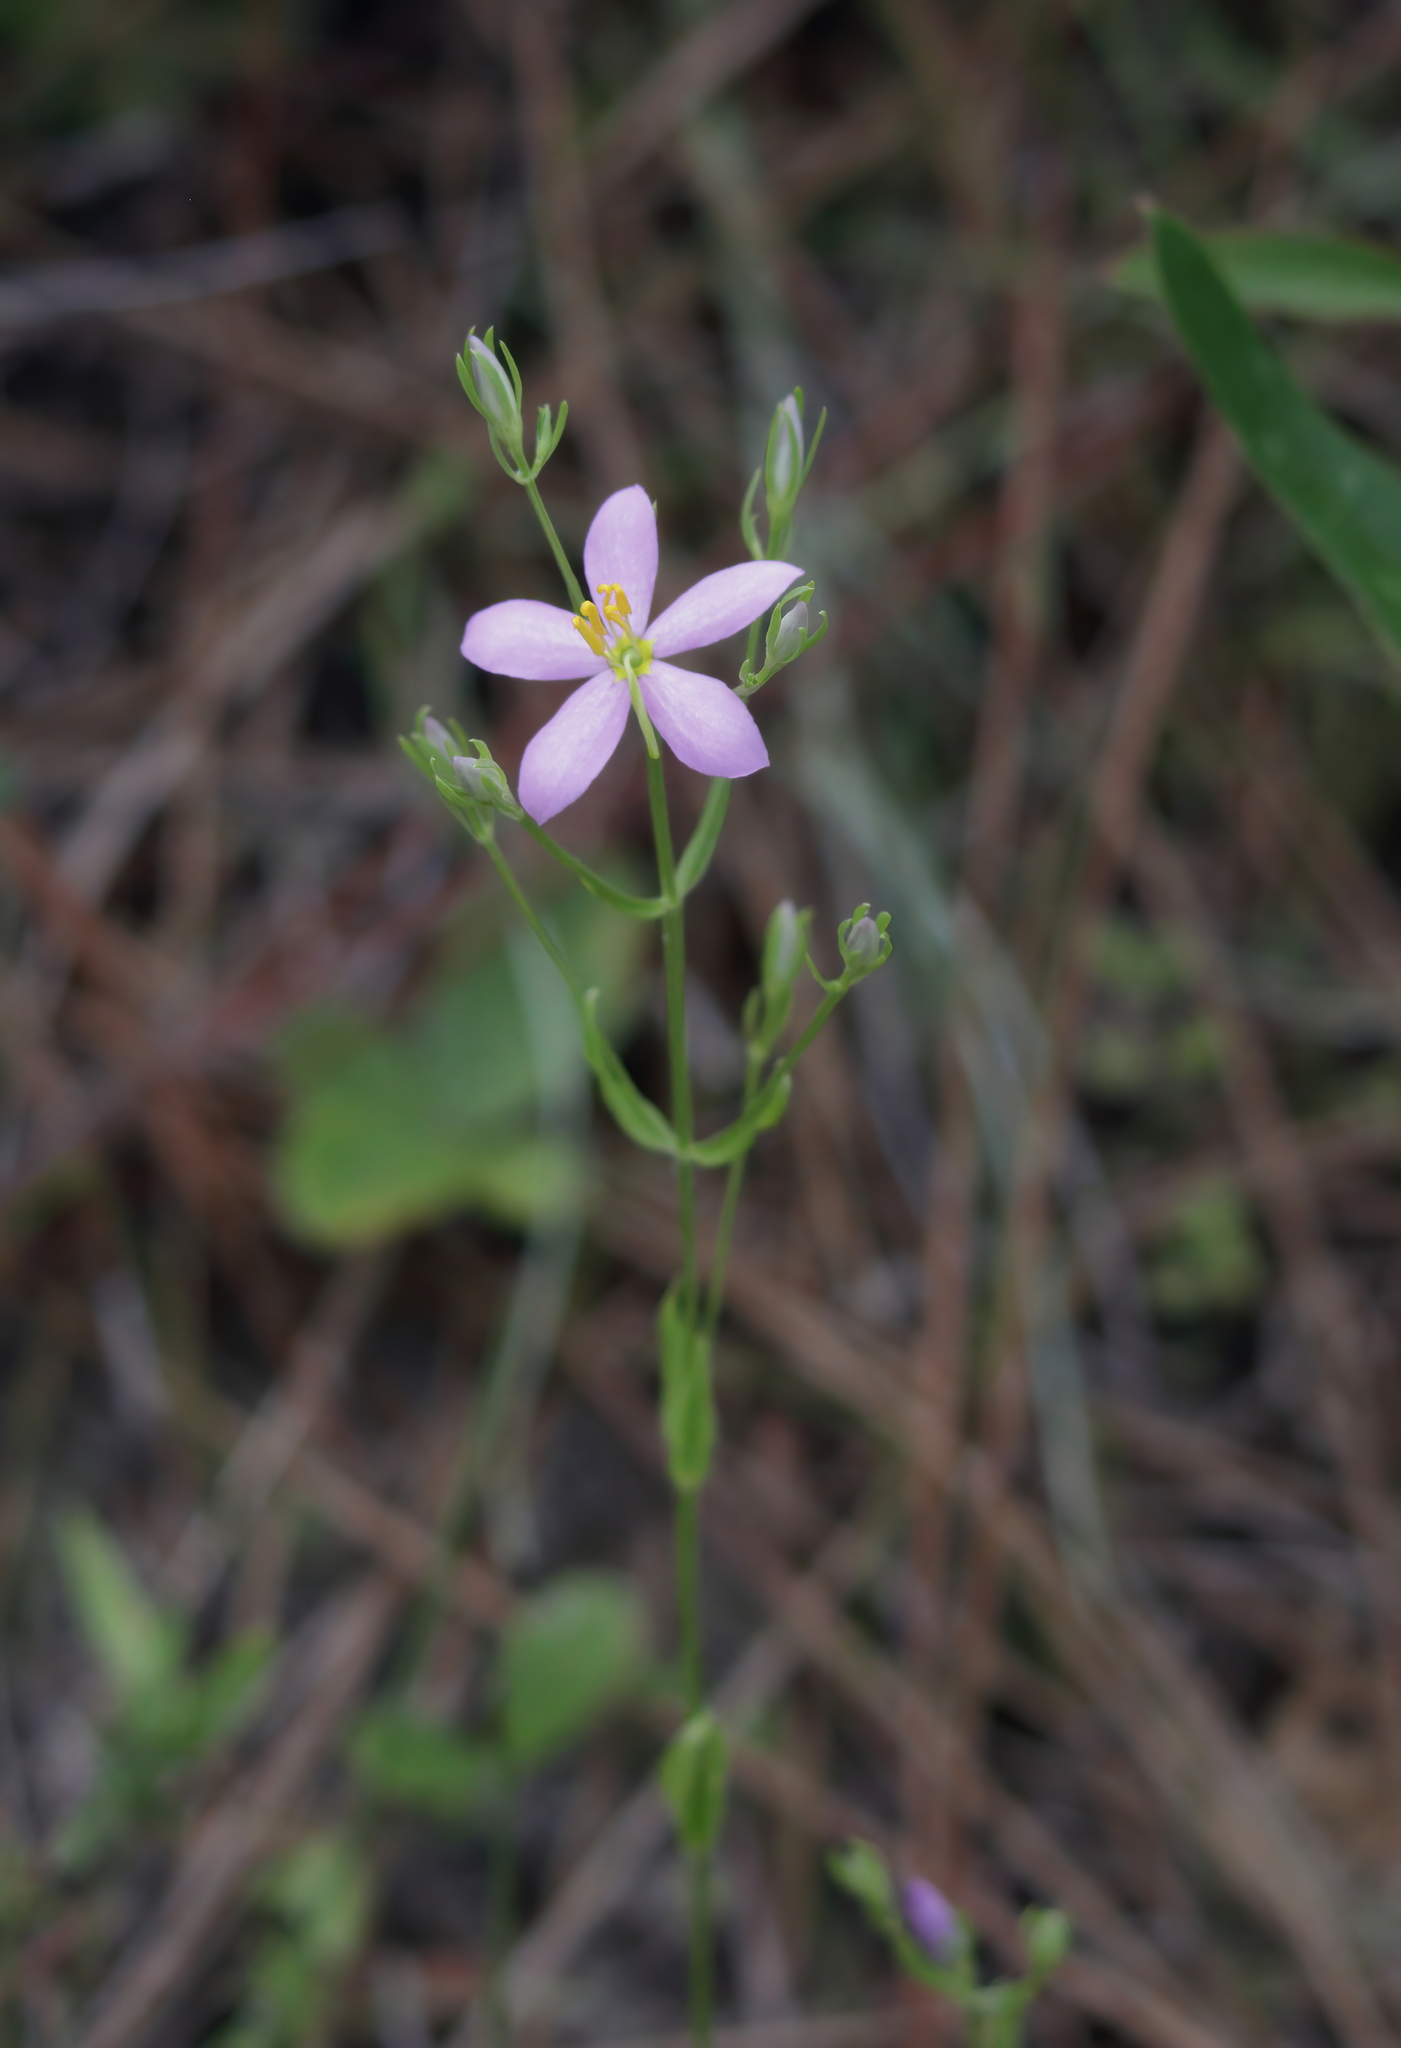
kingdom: Plantae
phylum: Tracheophyta
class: Magnoliopsida
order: Gentianales
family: Gentianaceae
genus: Sabatia
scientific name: Sabatia brachiata
